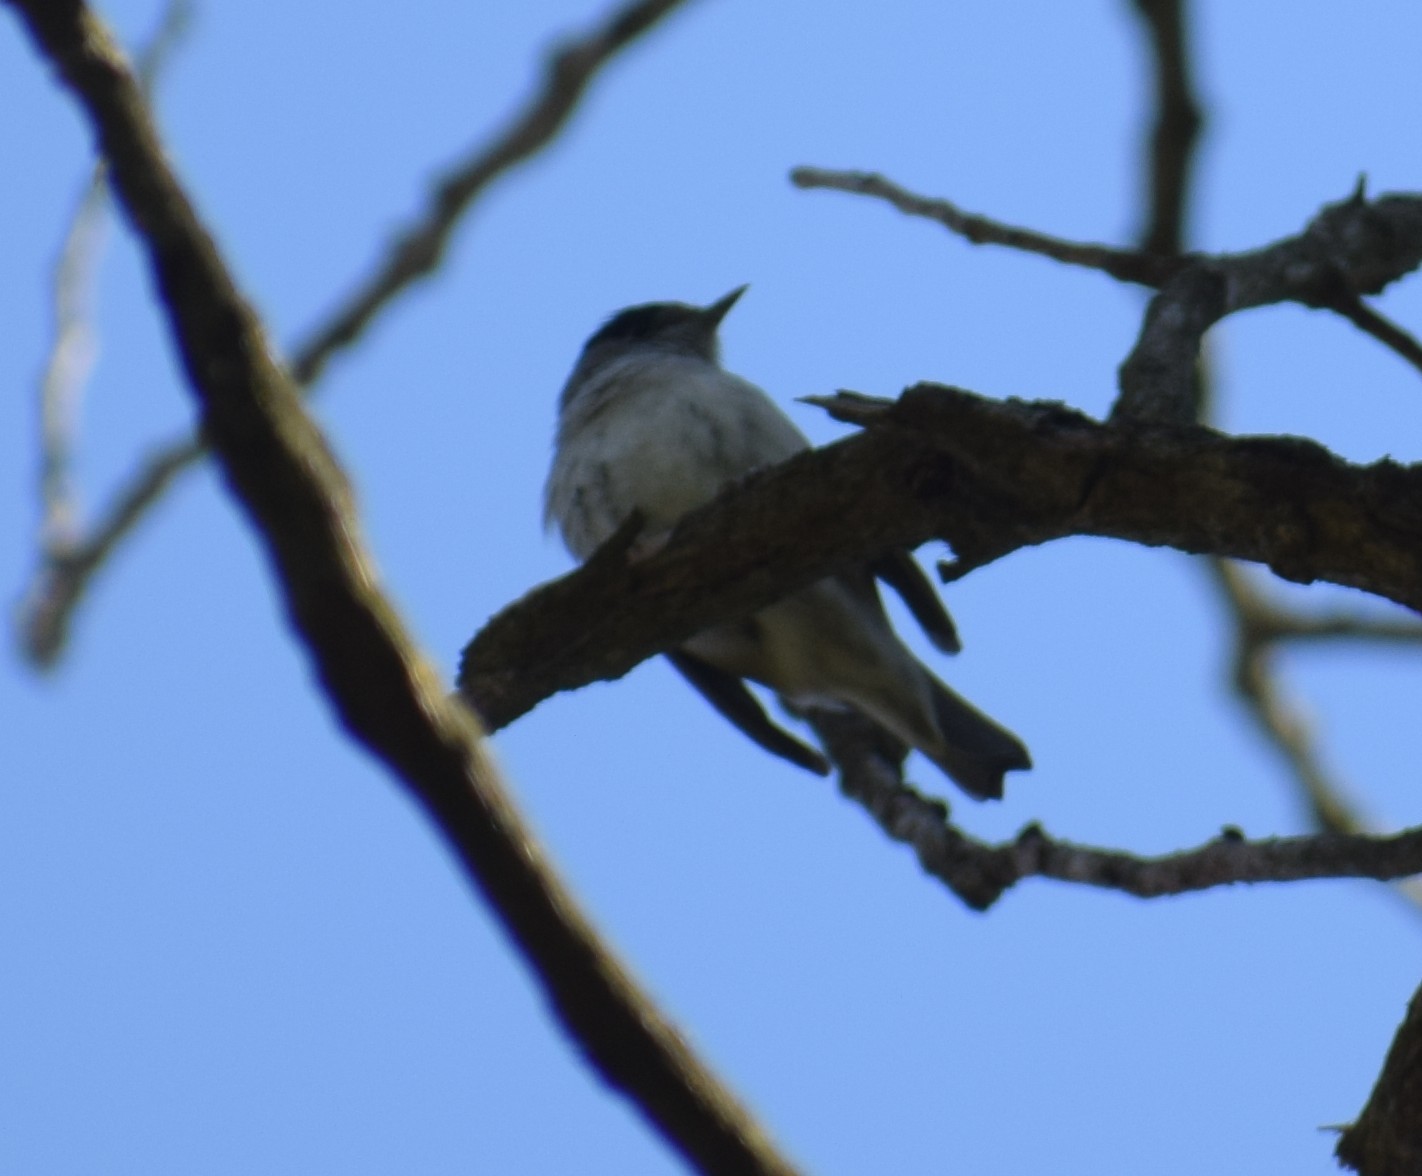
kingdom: Animalia
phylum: Chordata
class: Aves
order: Passeriformes
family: Sylviidae
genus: Sylvia
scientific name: Sylvia atricapilla
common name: Eurasian blackcap
